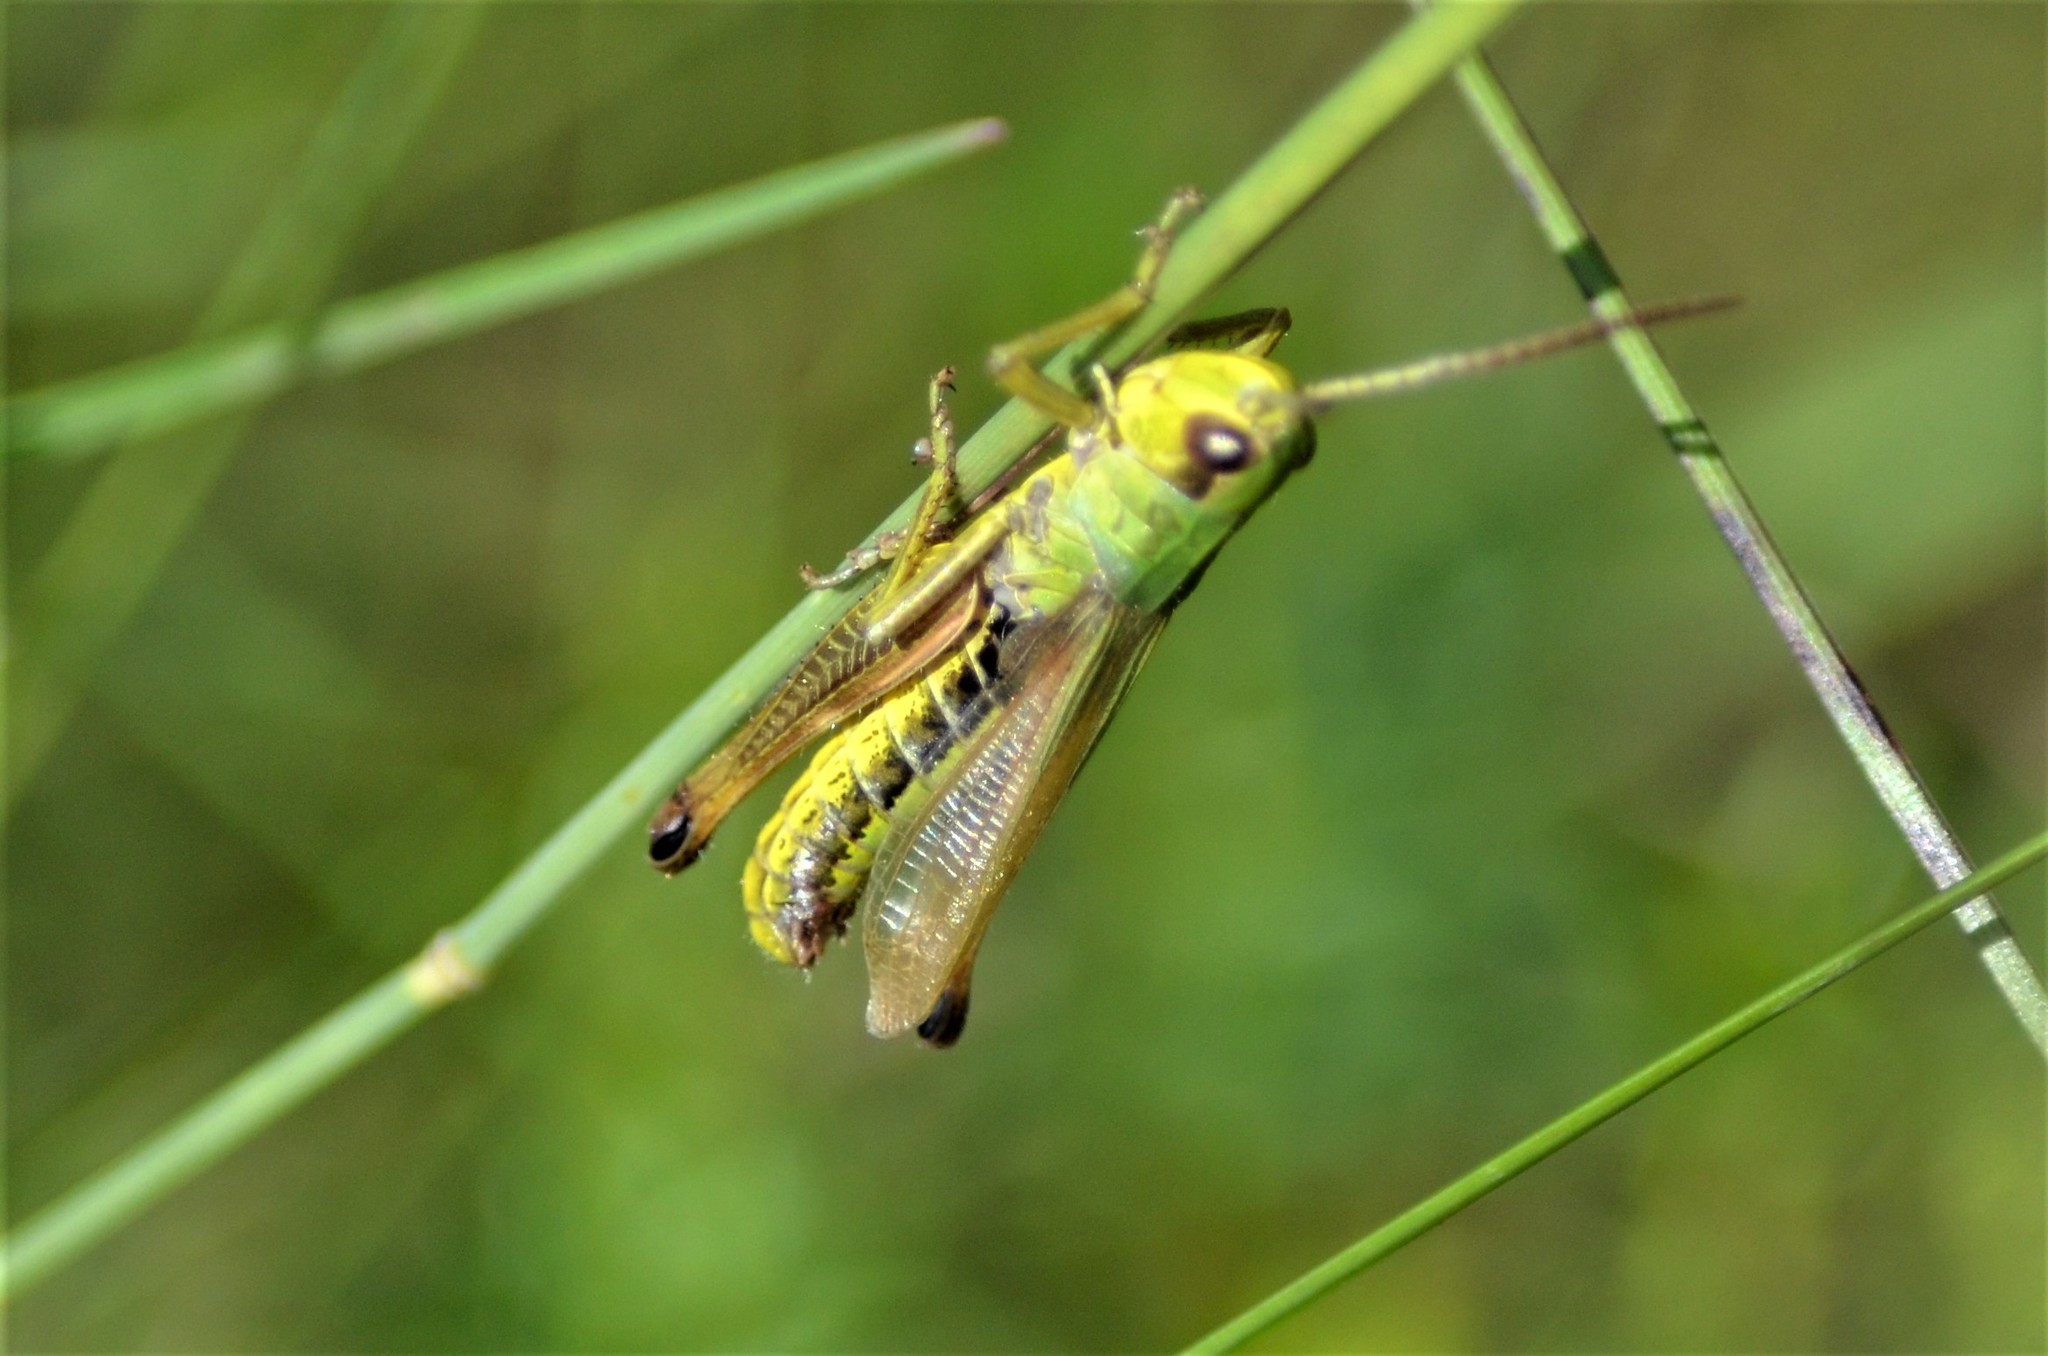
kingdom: Animalia
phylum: Arthropoda
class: Insecta
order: Orthoptera
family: Acrididae
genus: Pseudochorthippus
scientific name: Pseudochorthippus parallelus
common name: Meadow grasshopper
